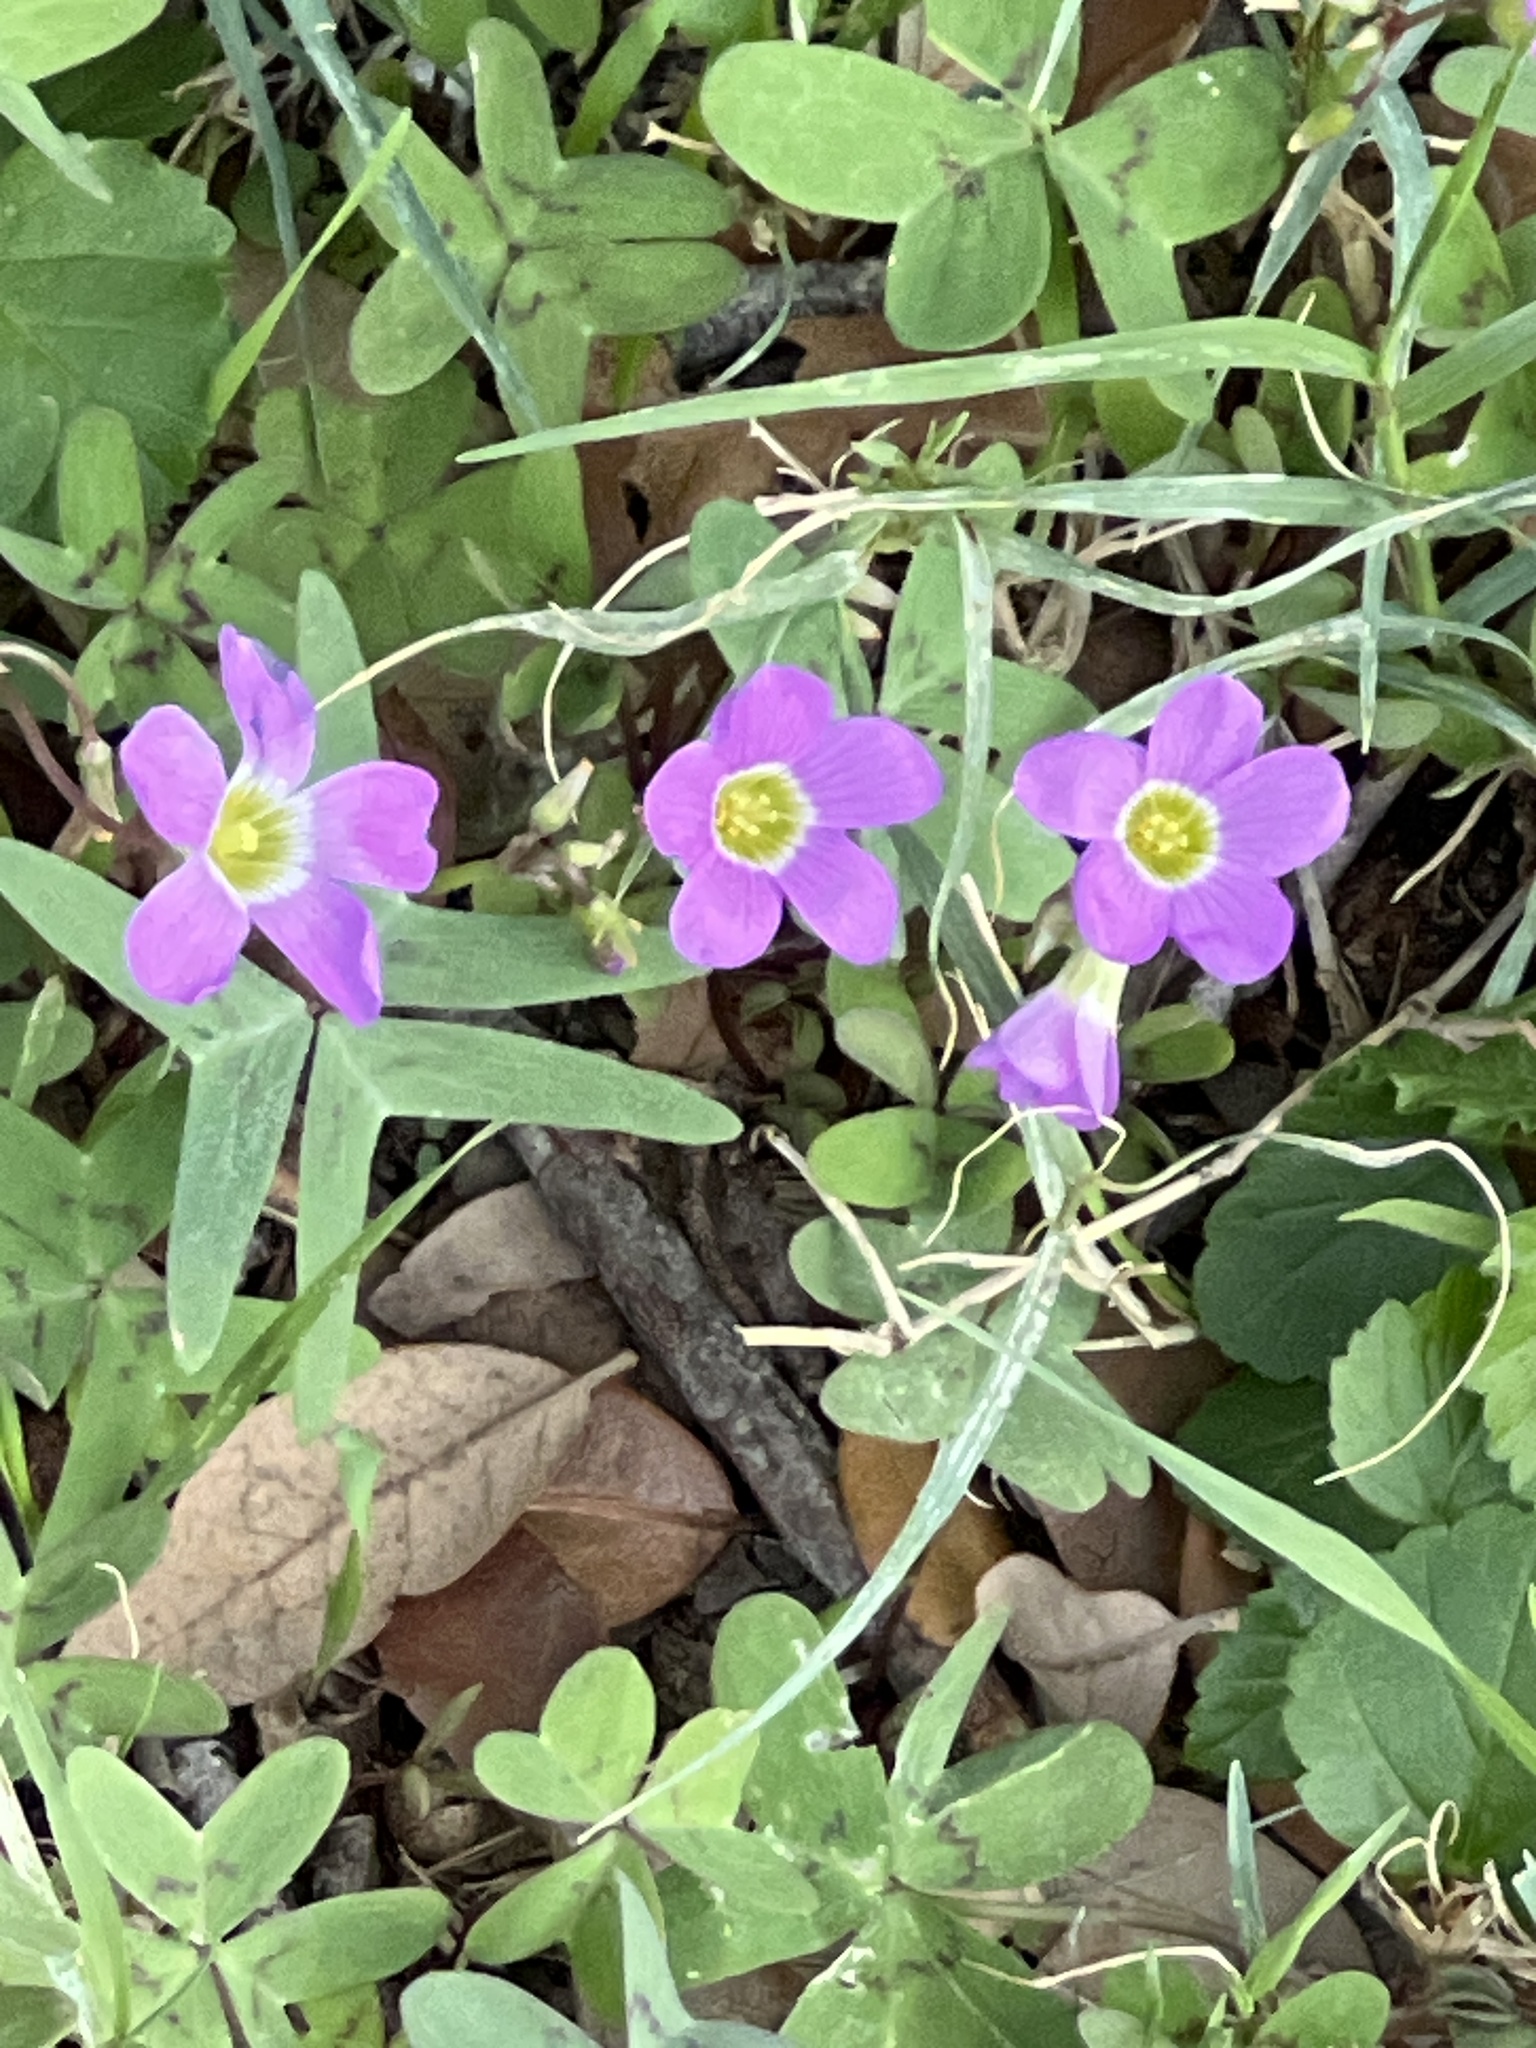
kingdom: Plantae
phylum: Tracheophyta
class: Magnoliopsida
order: Oxalidales
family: Oxalidaceae
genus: Oxalis
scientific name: Oxalis drummondii
